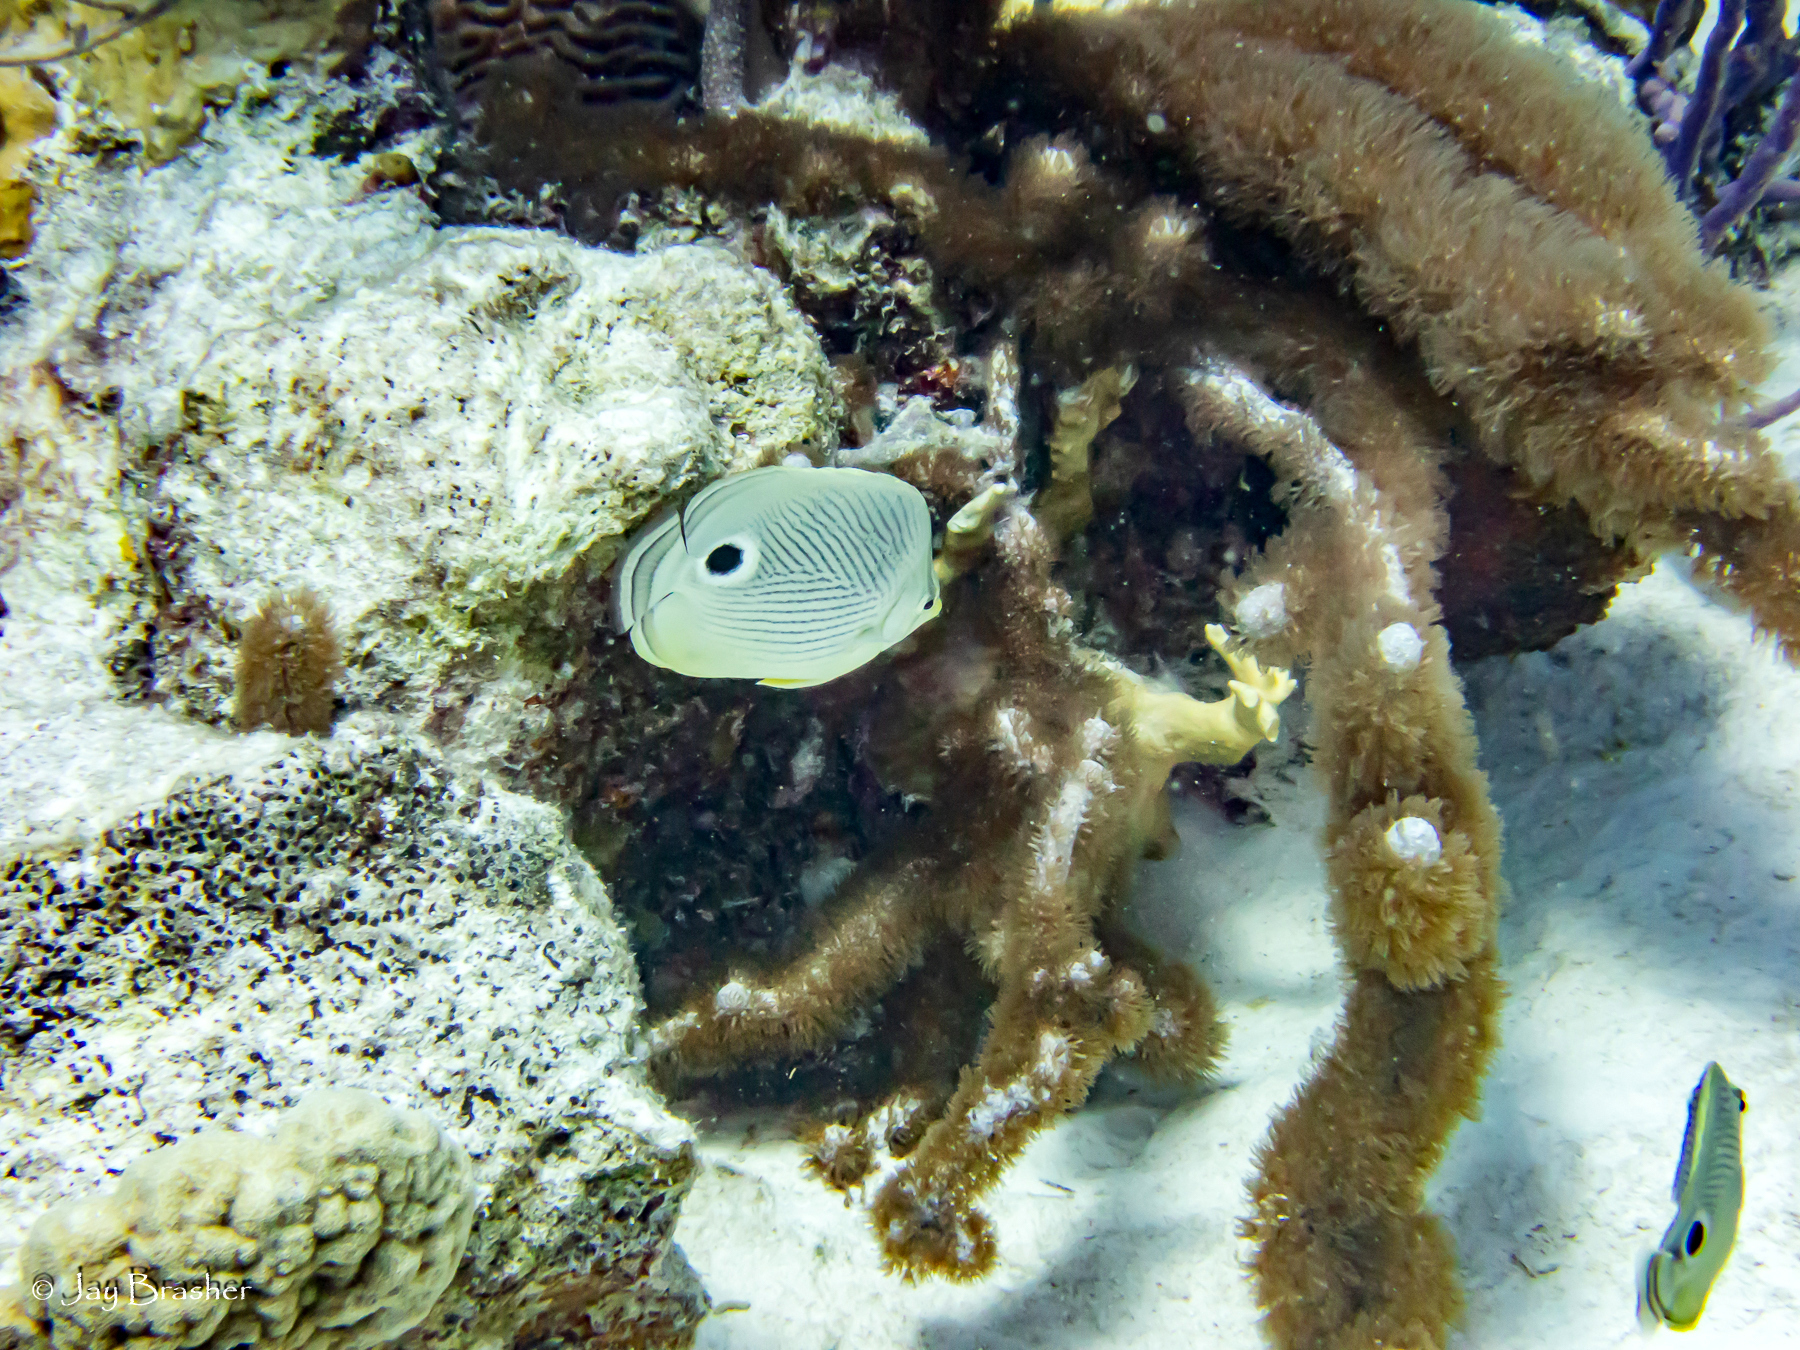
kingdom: Animalia
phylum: Chordata
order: Perciformes
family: Chaetodontidae
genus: Chaetodon
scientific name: Chaetodon capistratus
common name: Kete
